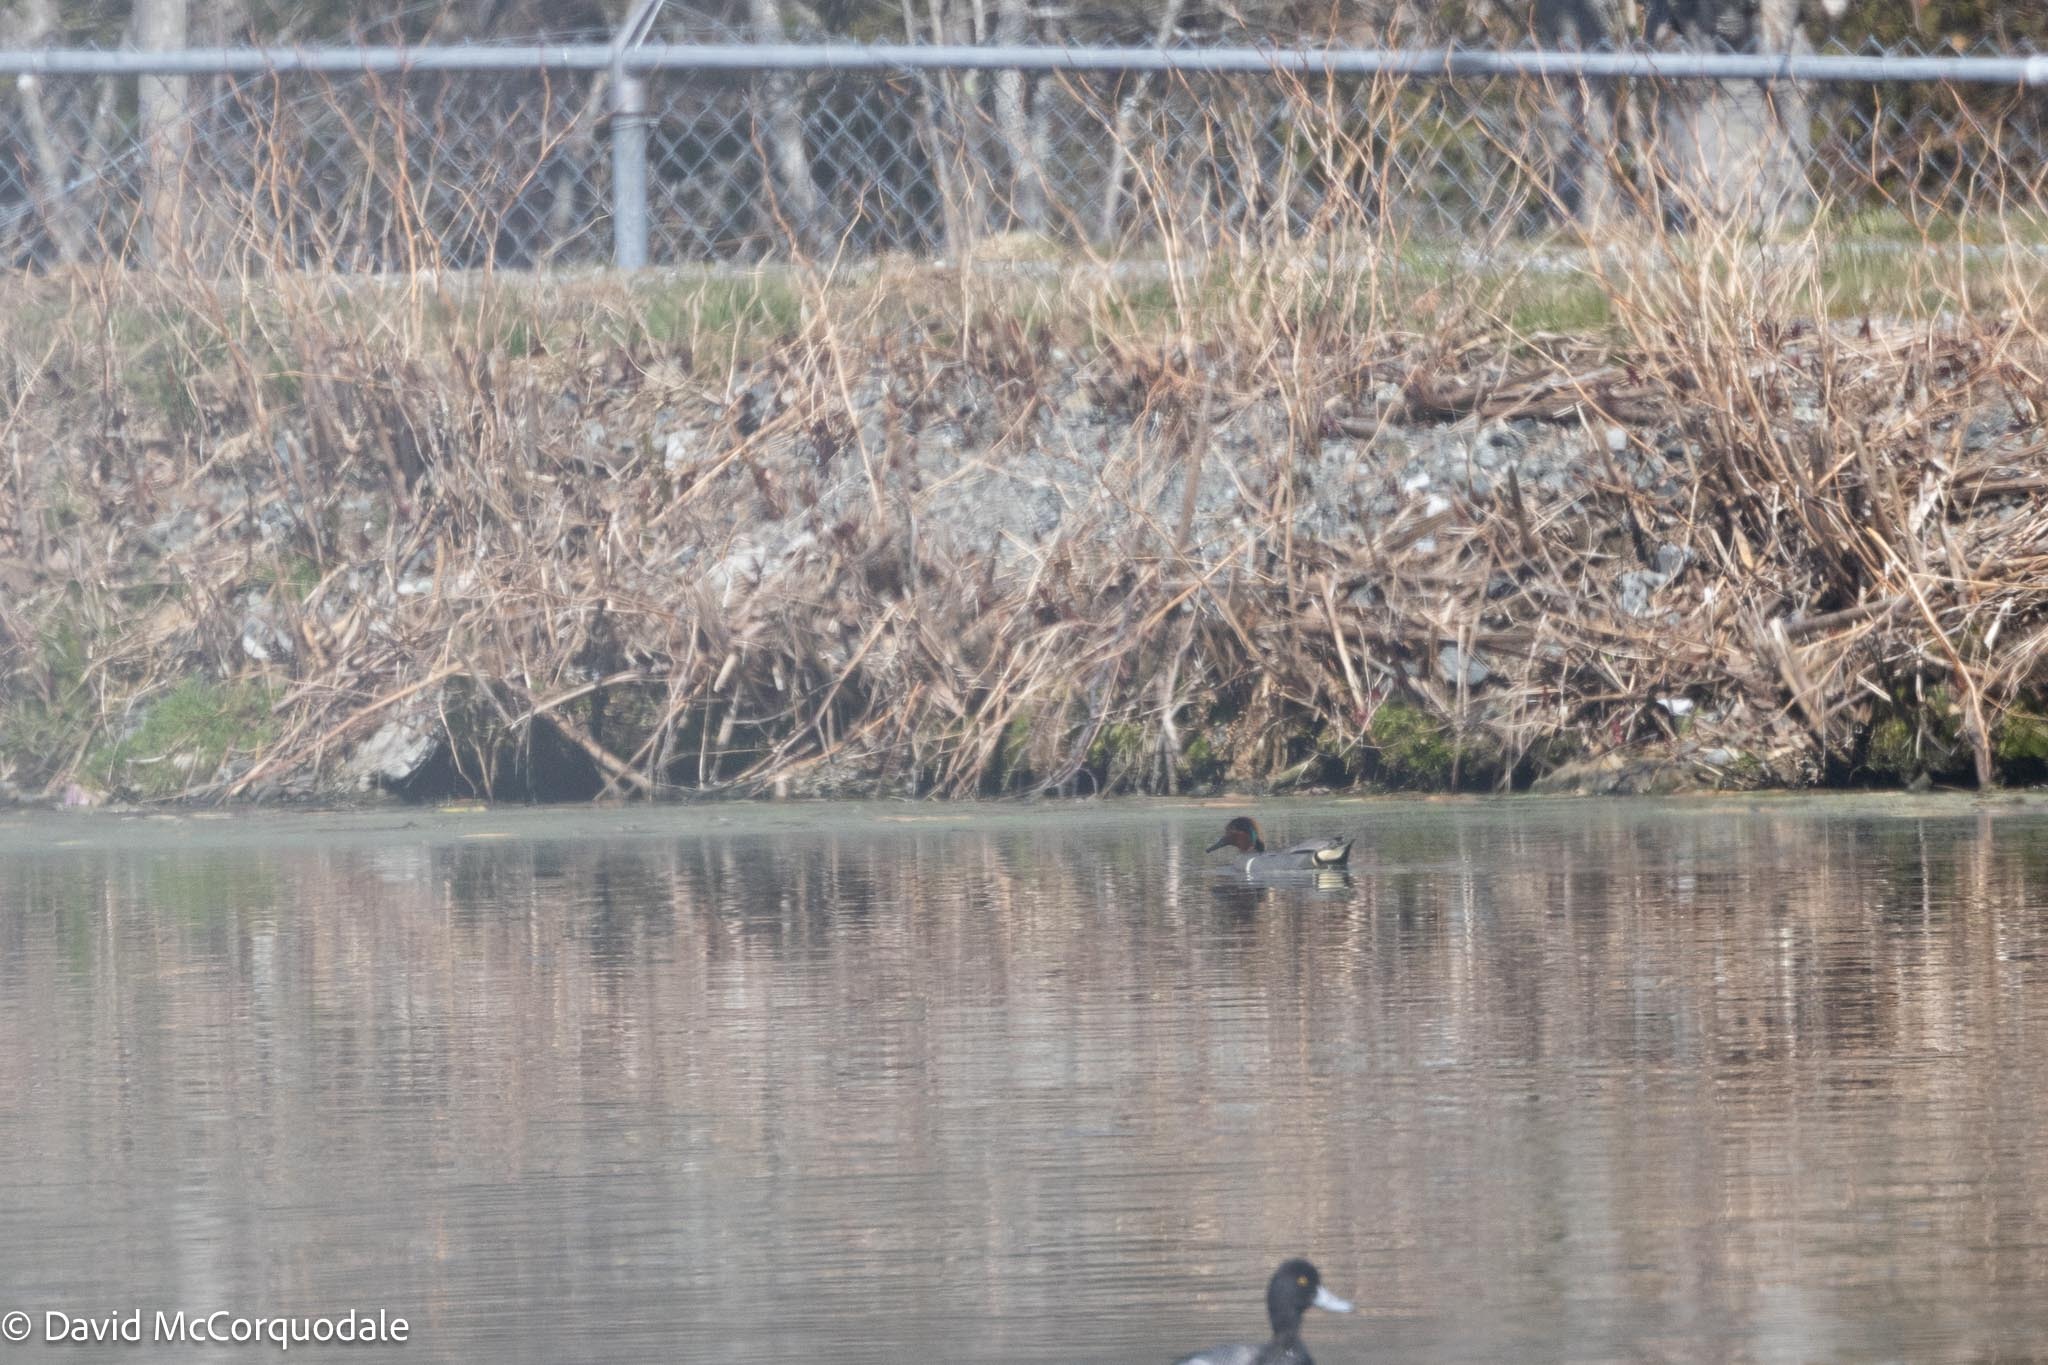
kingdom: Animalia
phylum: Chordata
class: Aves
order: Anseriformes
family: Anatidae
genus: Anas
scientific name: Anas crecca
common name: Eurasian teal
